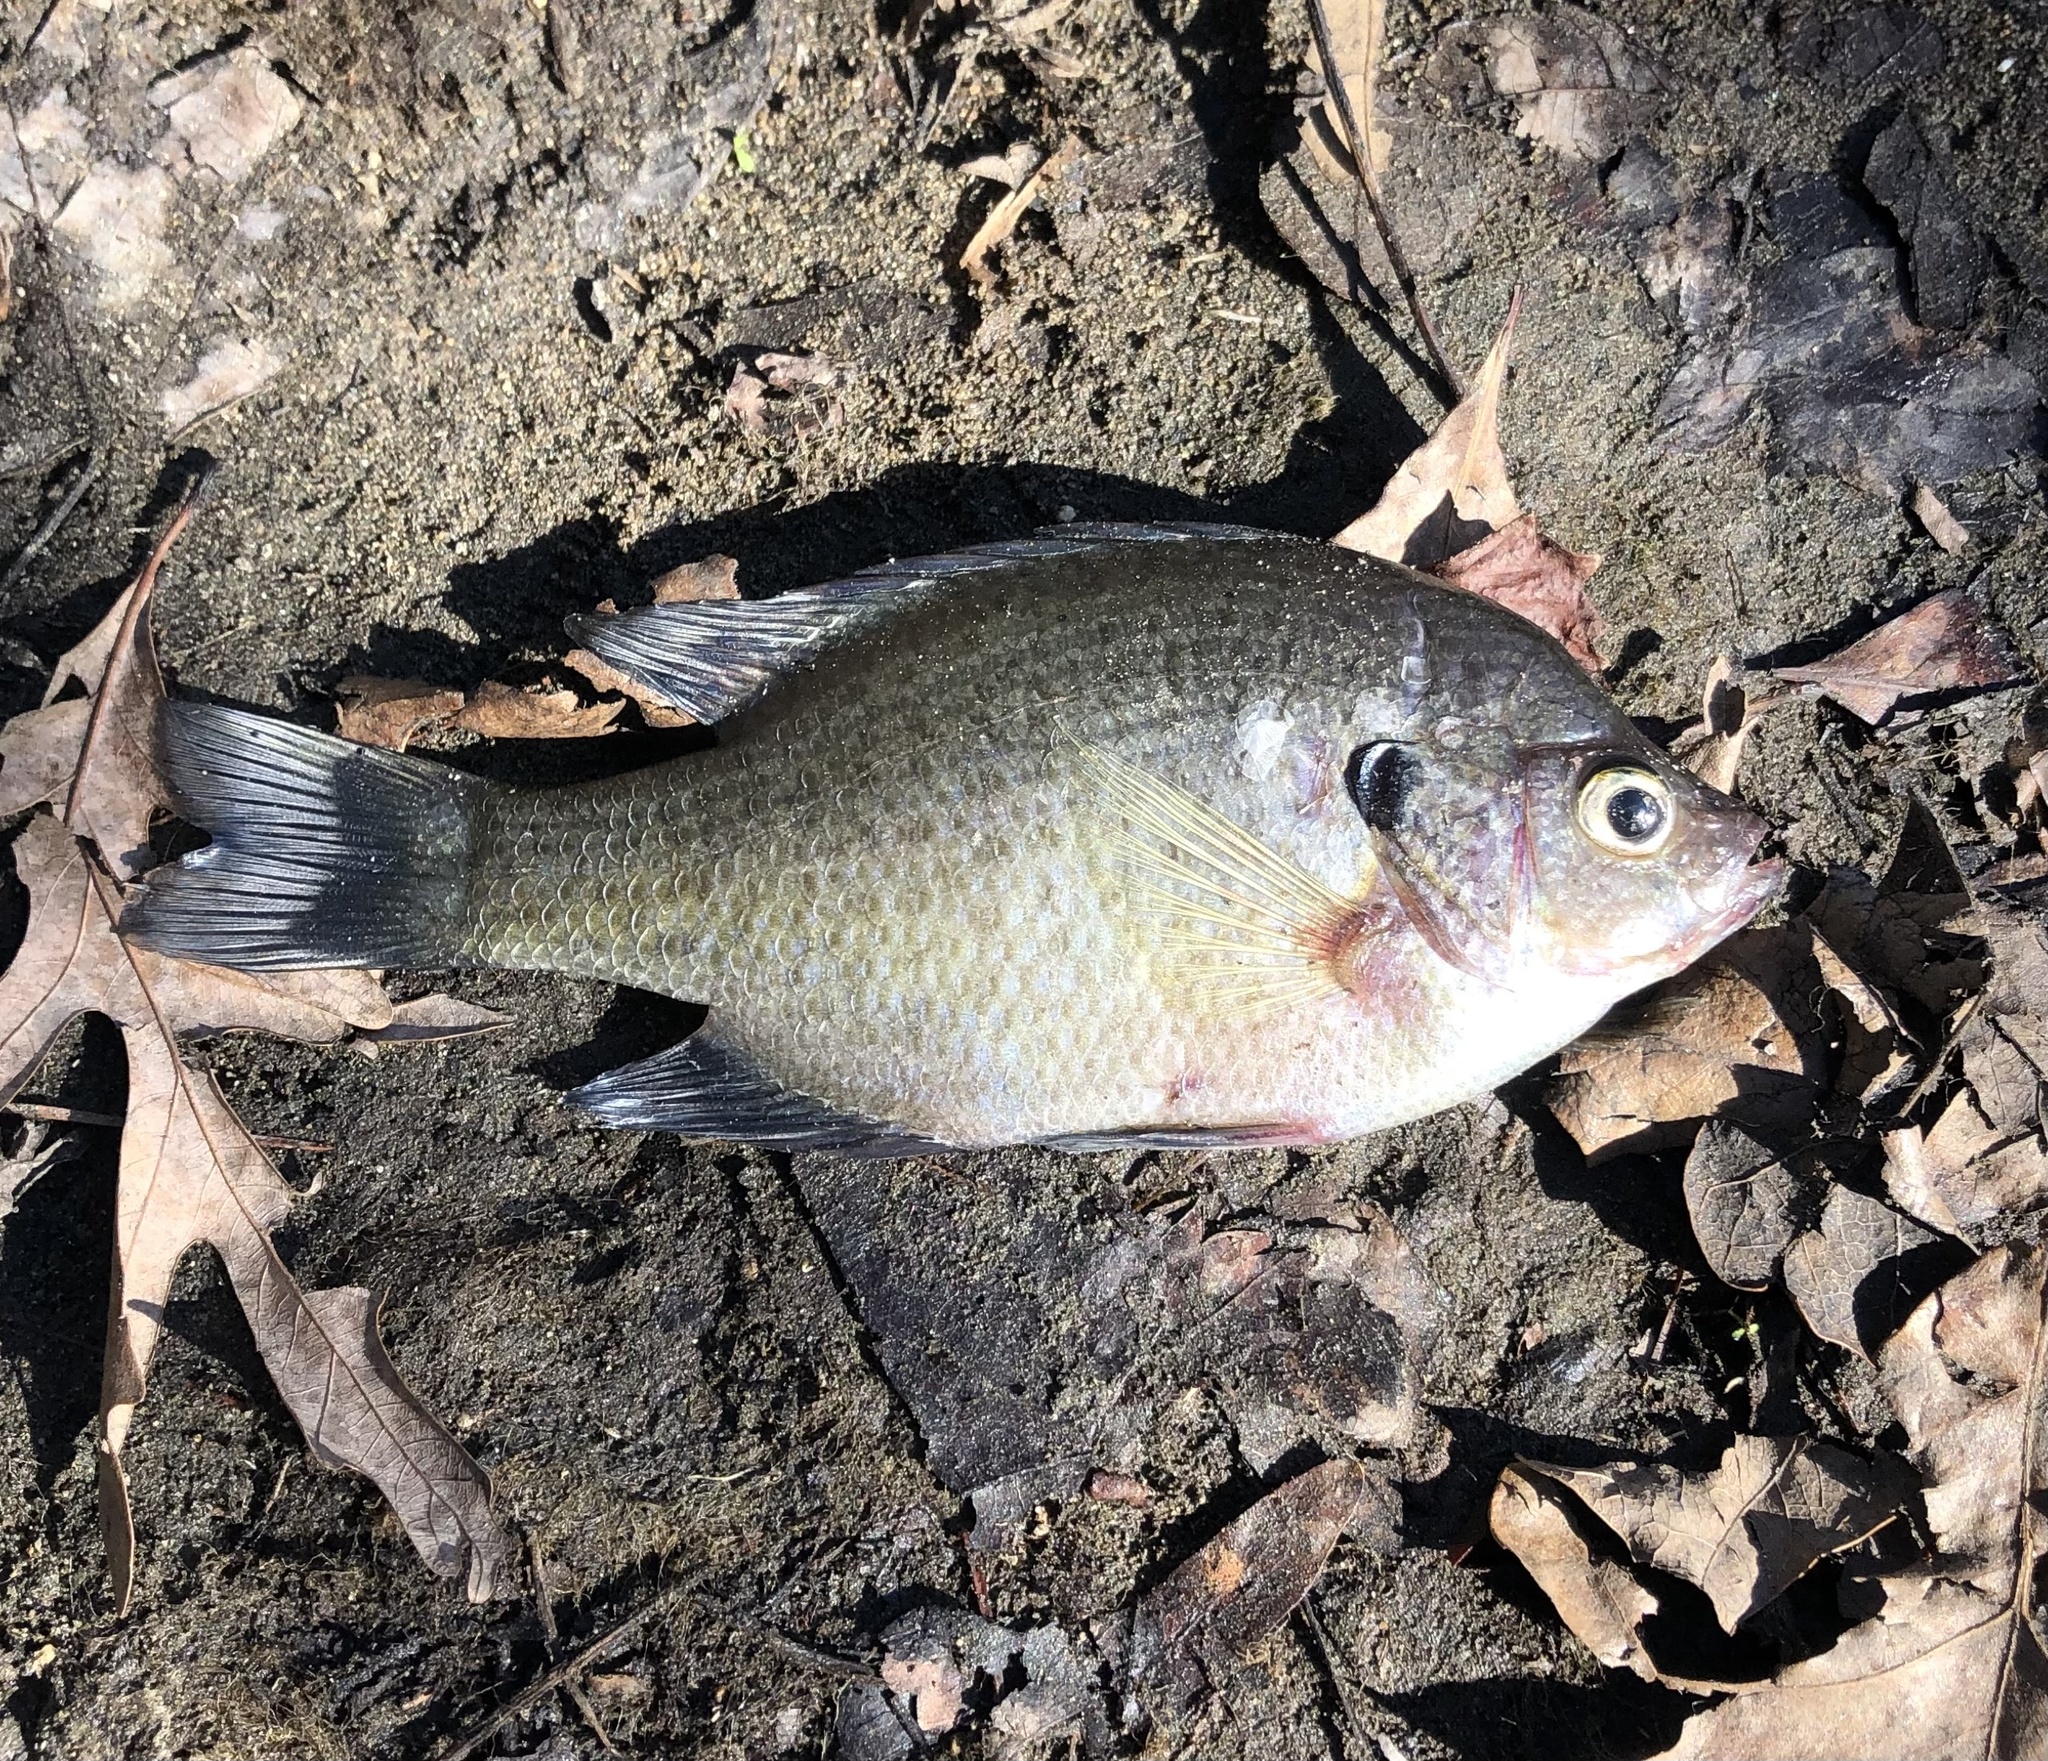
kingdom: Animalia
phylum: Chordata
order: Perciformes
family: Centrarchidae
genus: Lepomis
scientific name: Lepomis macrochirus
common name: Bluegill
